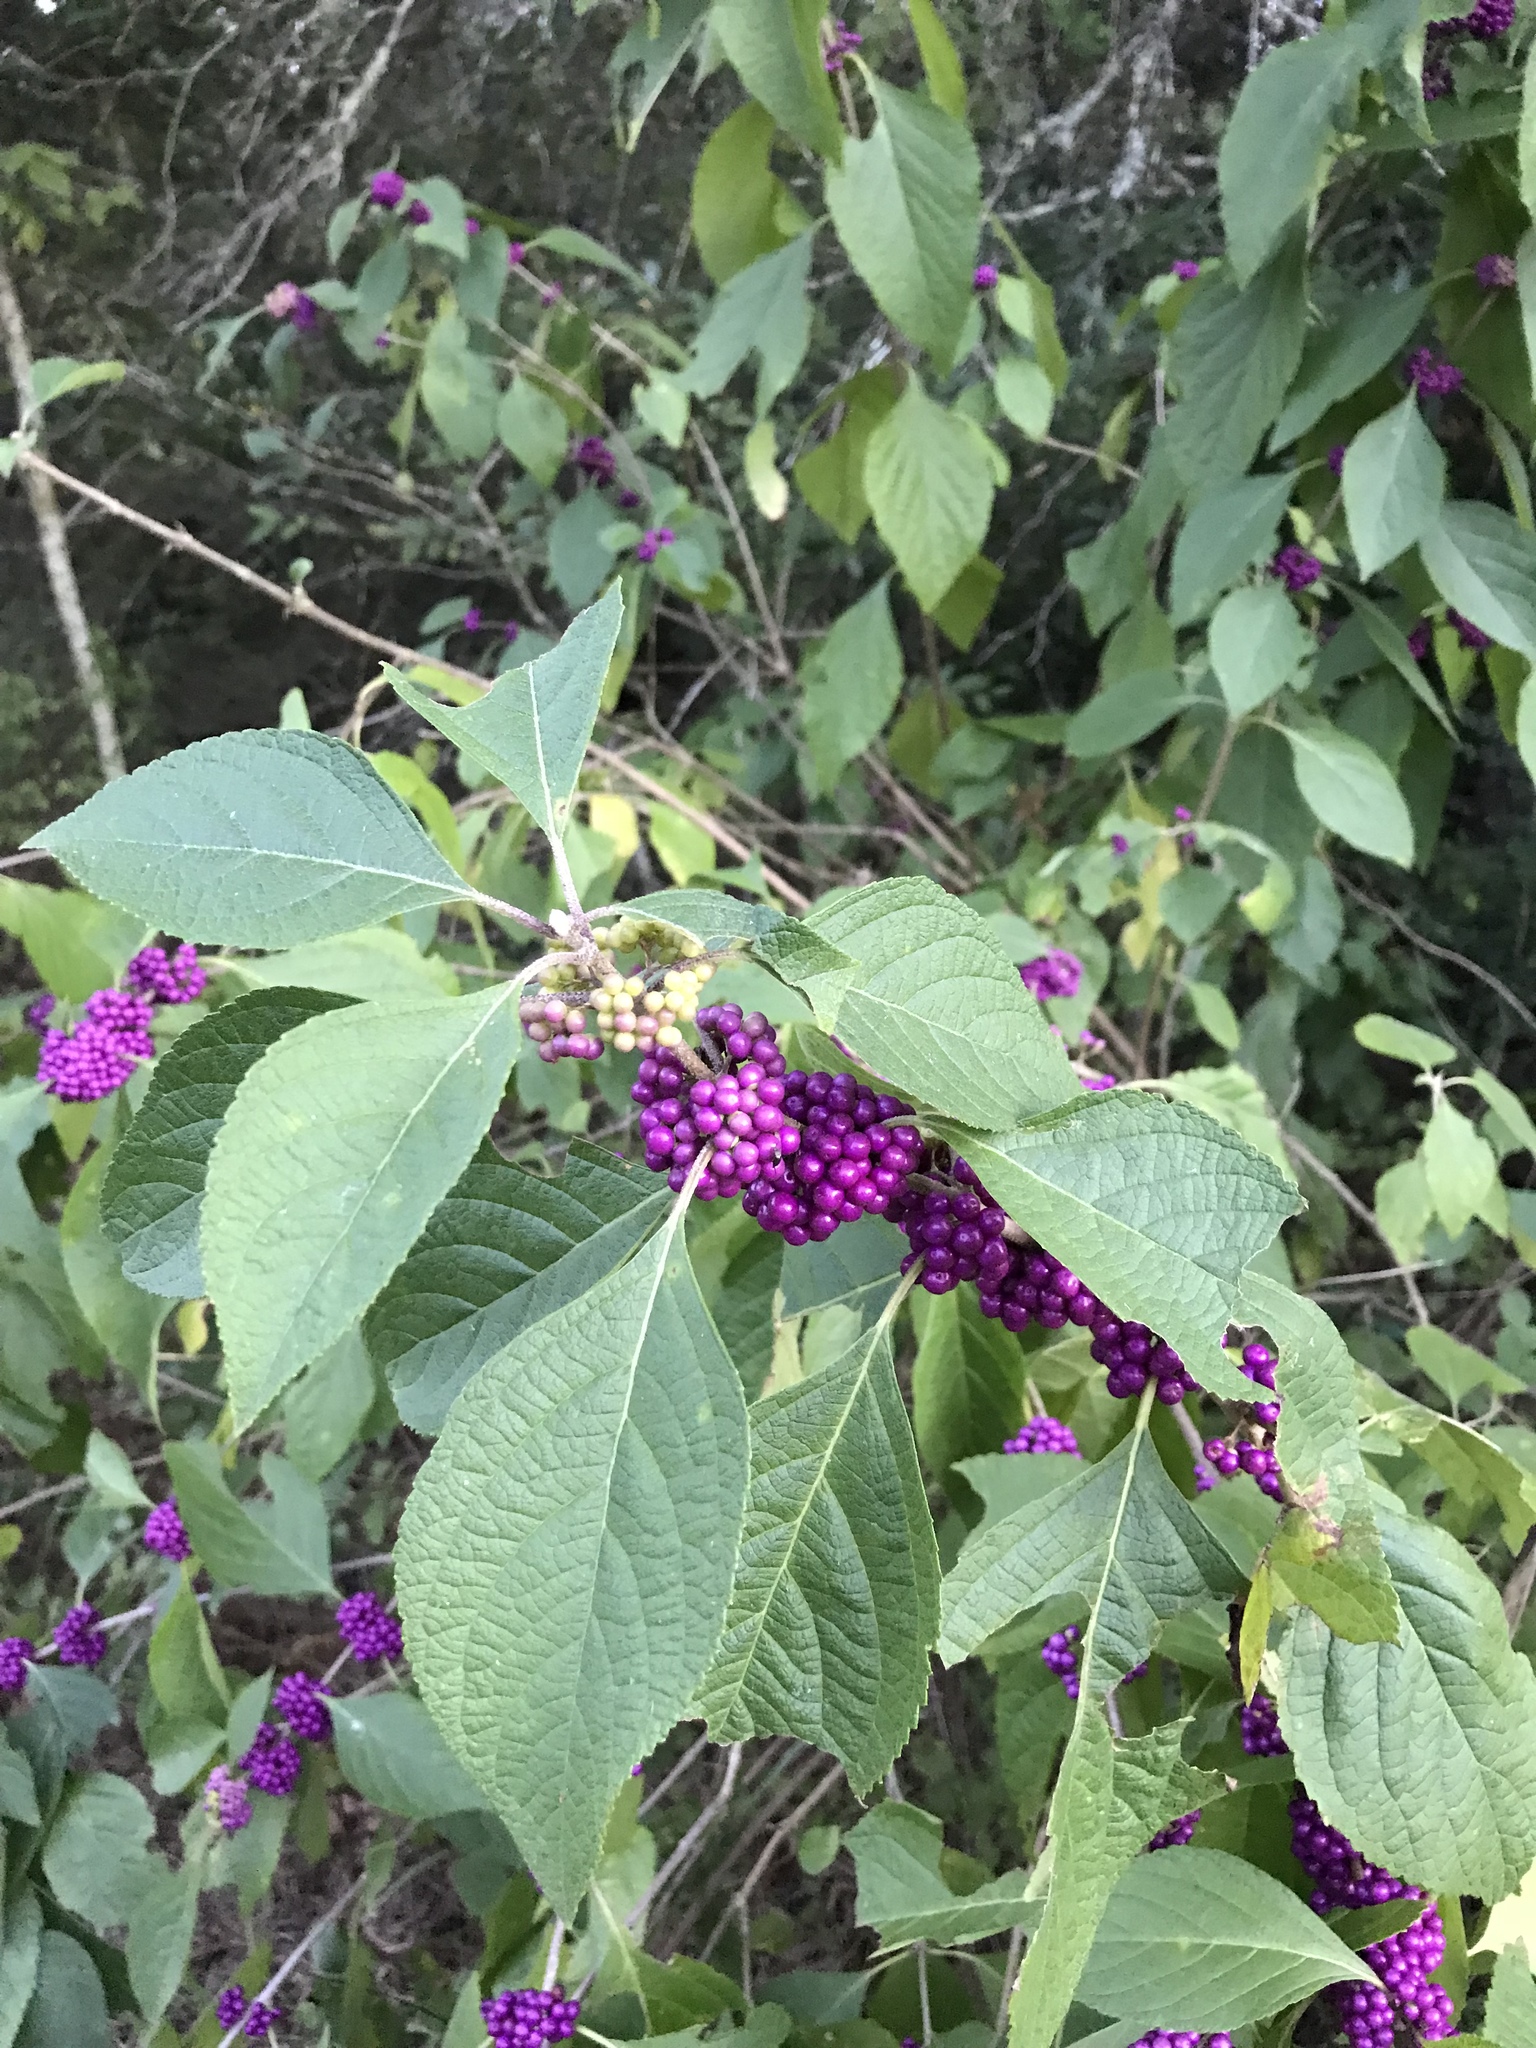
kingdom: Plantae
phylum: Tracheophyta
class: Magnoliopsida
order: Lamiales
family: Lamiaceae
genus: Callicarpa
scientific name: Callicarpa americana
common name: American beautyberry
